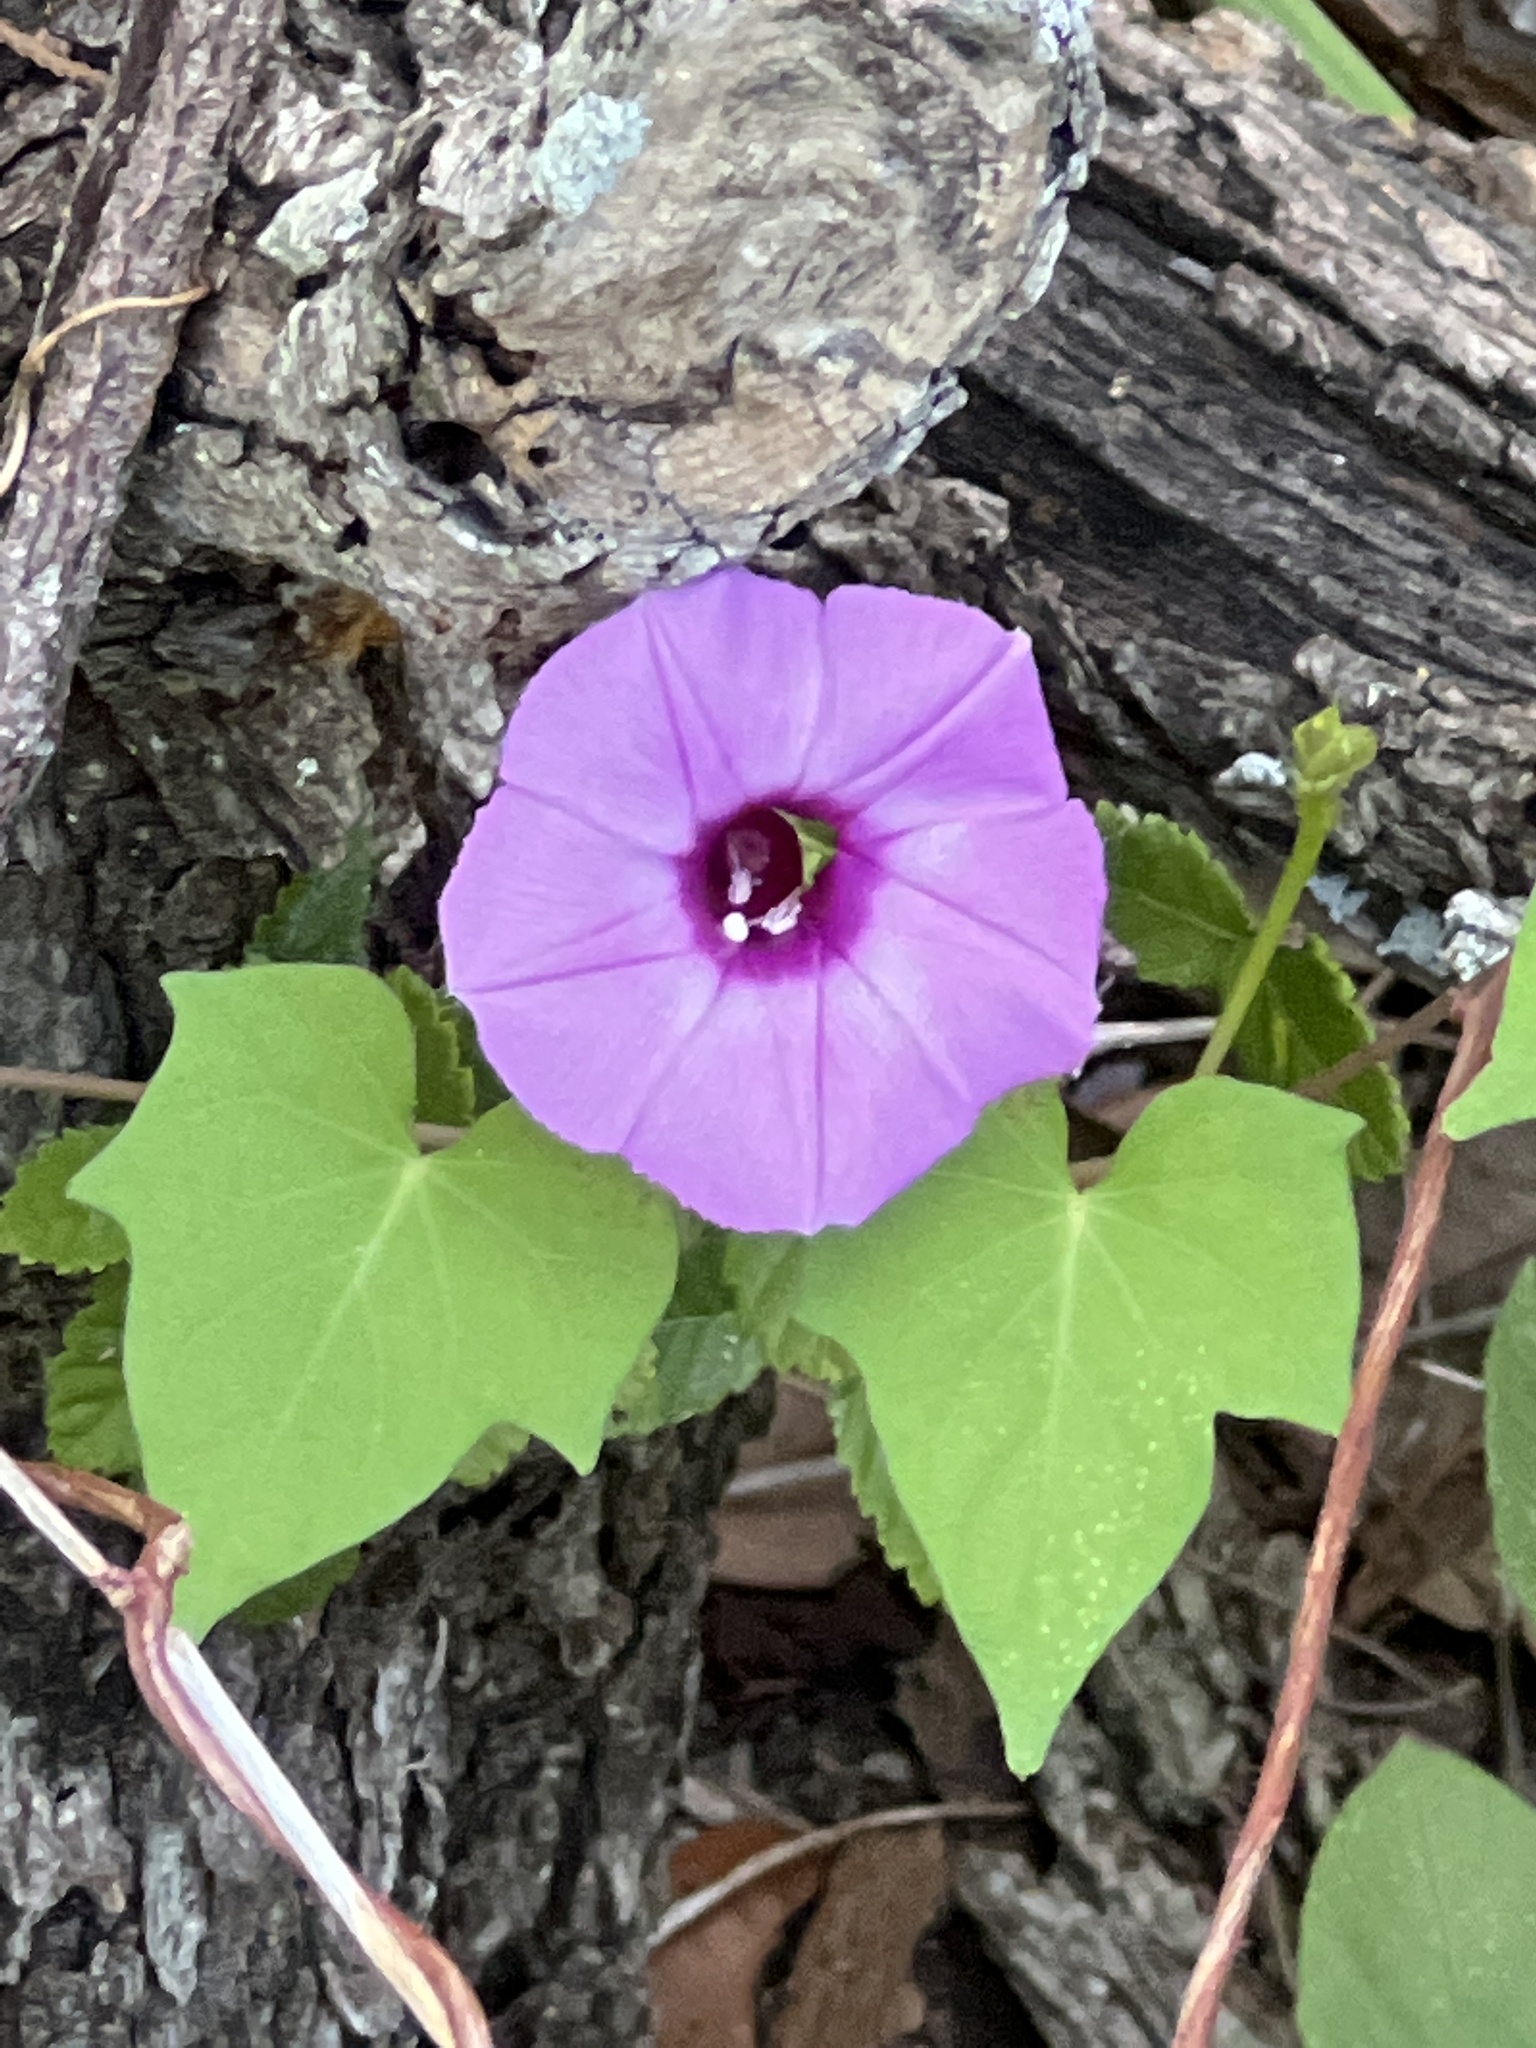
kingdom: Plantae
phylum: Tracheophyta
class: Magnoliopsida
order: Solanales
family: Convolvulaceae
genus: Ipomoea
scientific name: Ipomoea cordatotriloba
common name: Cotton morning glory
